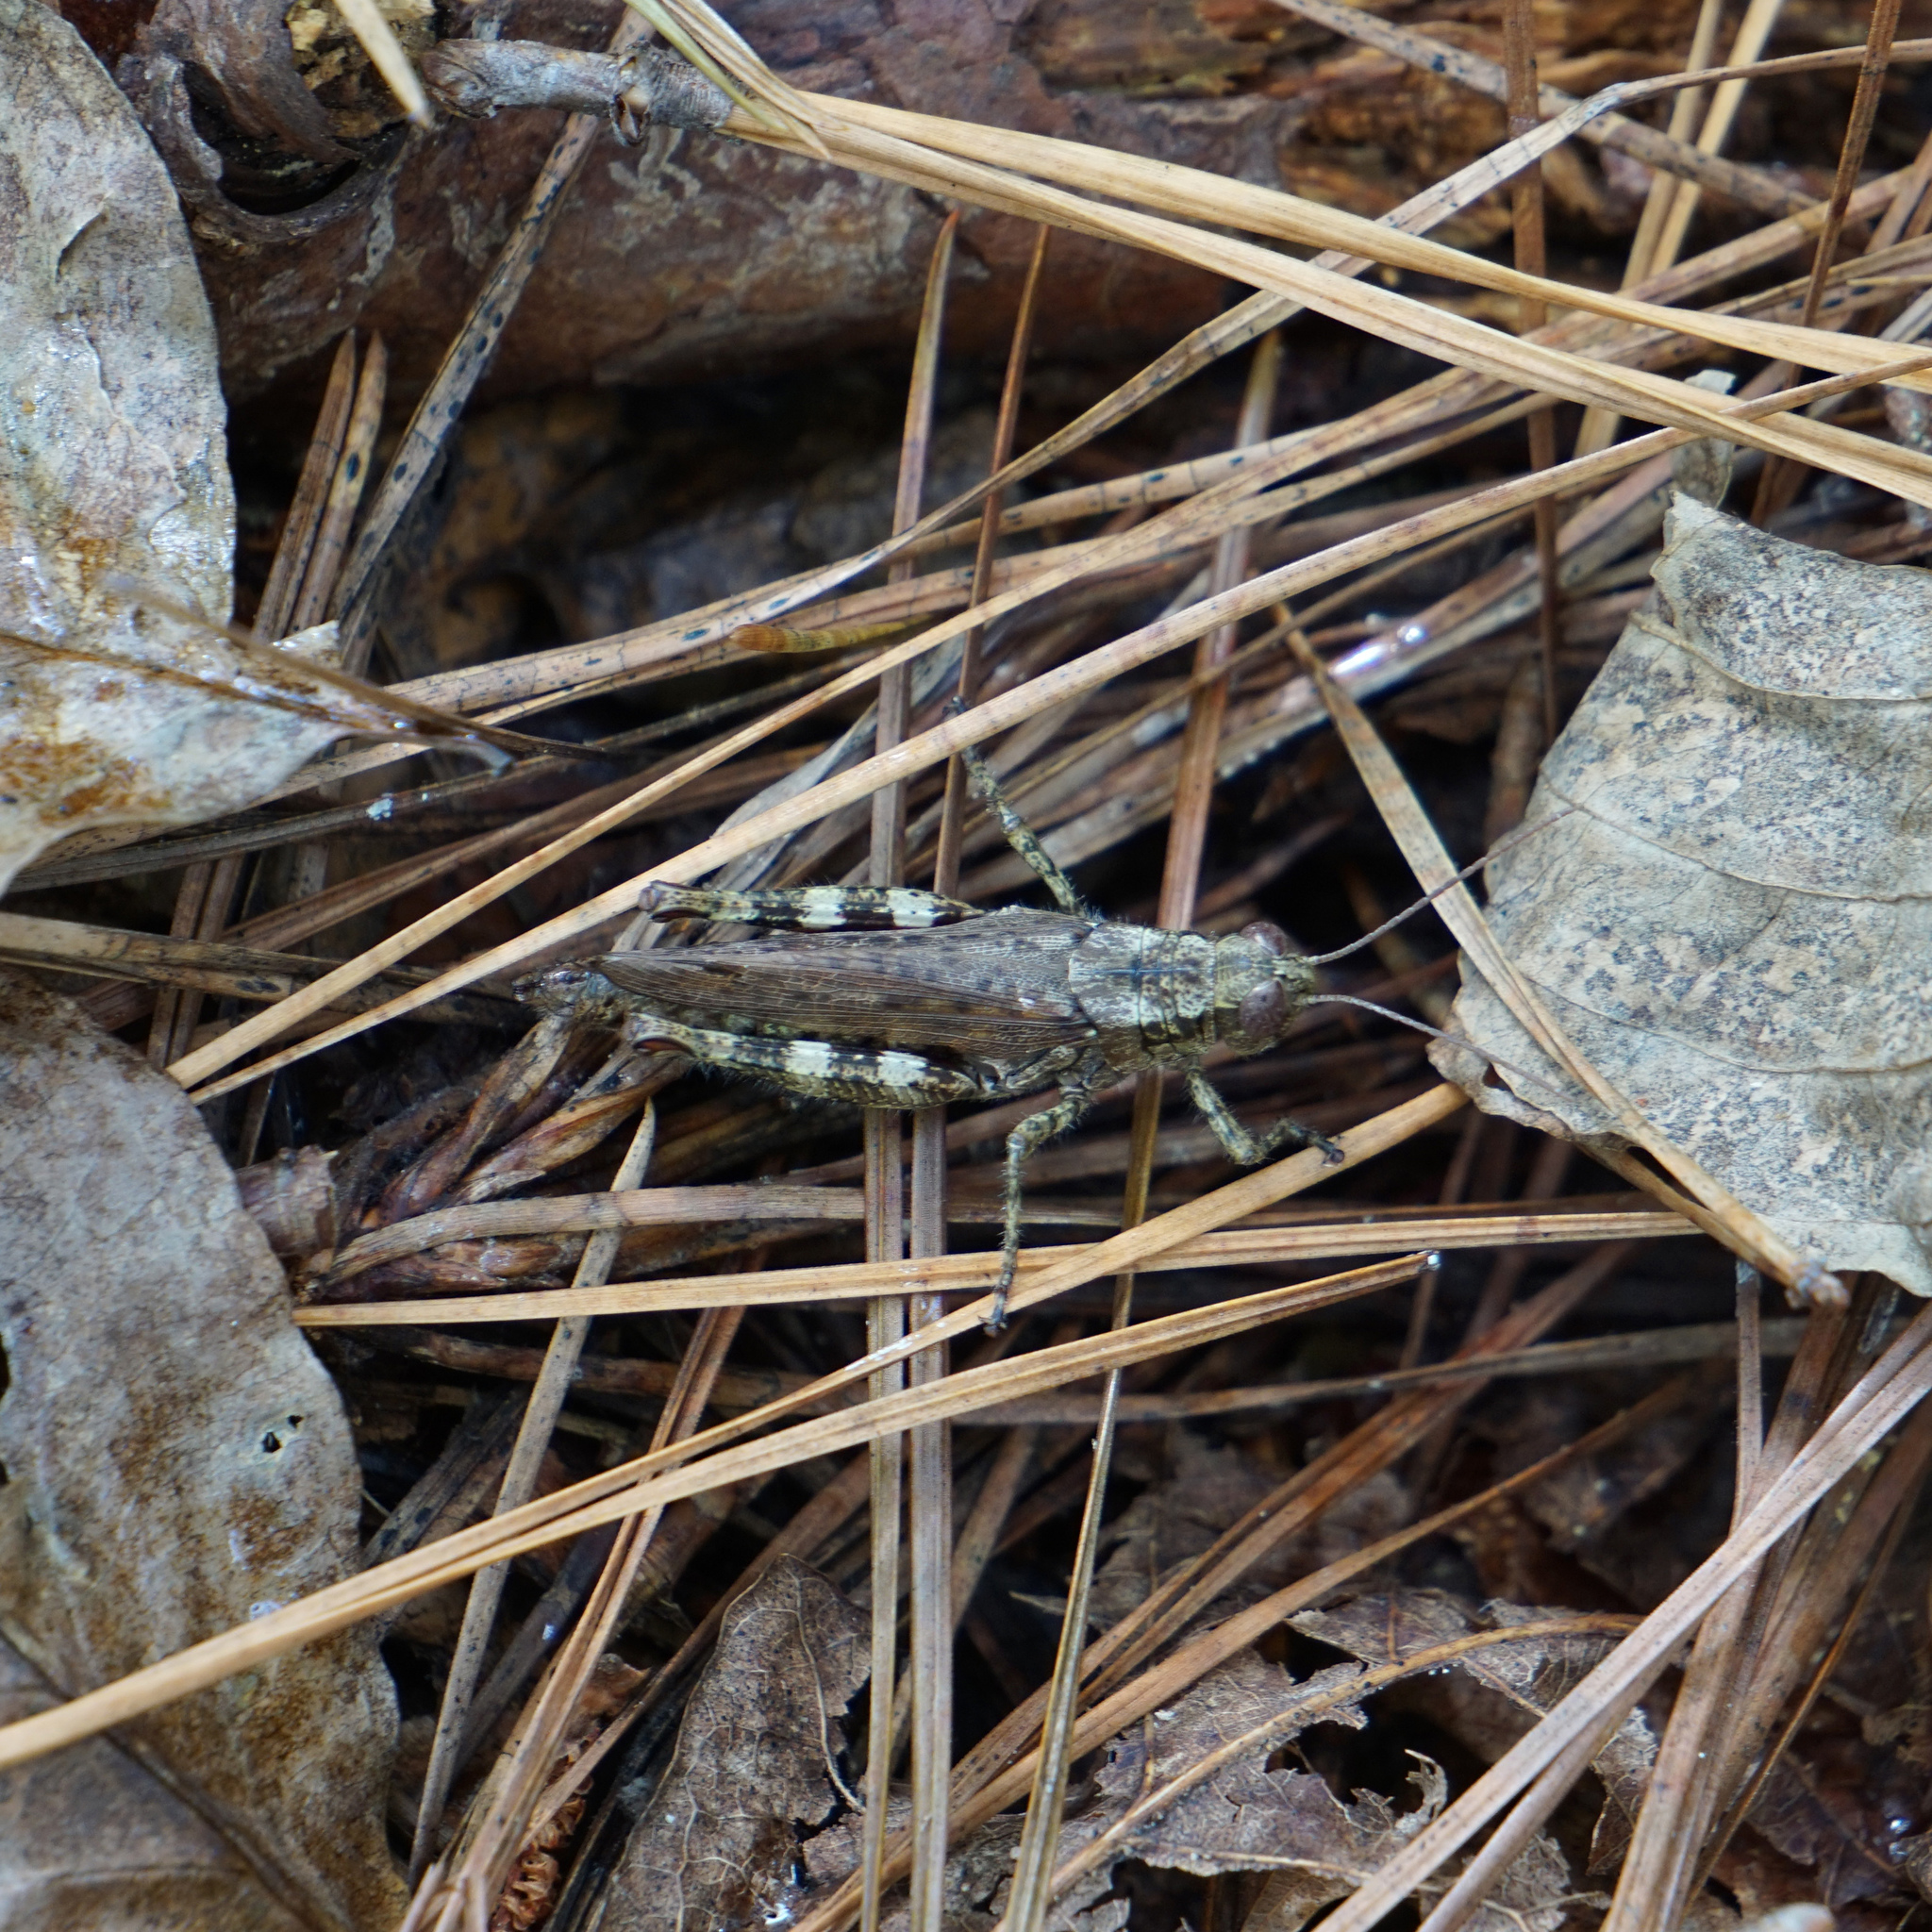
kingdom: Animalia
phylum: Arthropoda
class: Insecta
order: Orthoptera
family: Acrididae
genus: Melanoplus
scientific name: Melanoplus punctulatus
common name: Pine-tree spur-throat grasshopper
